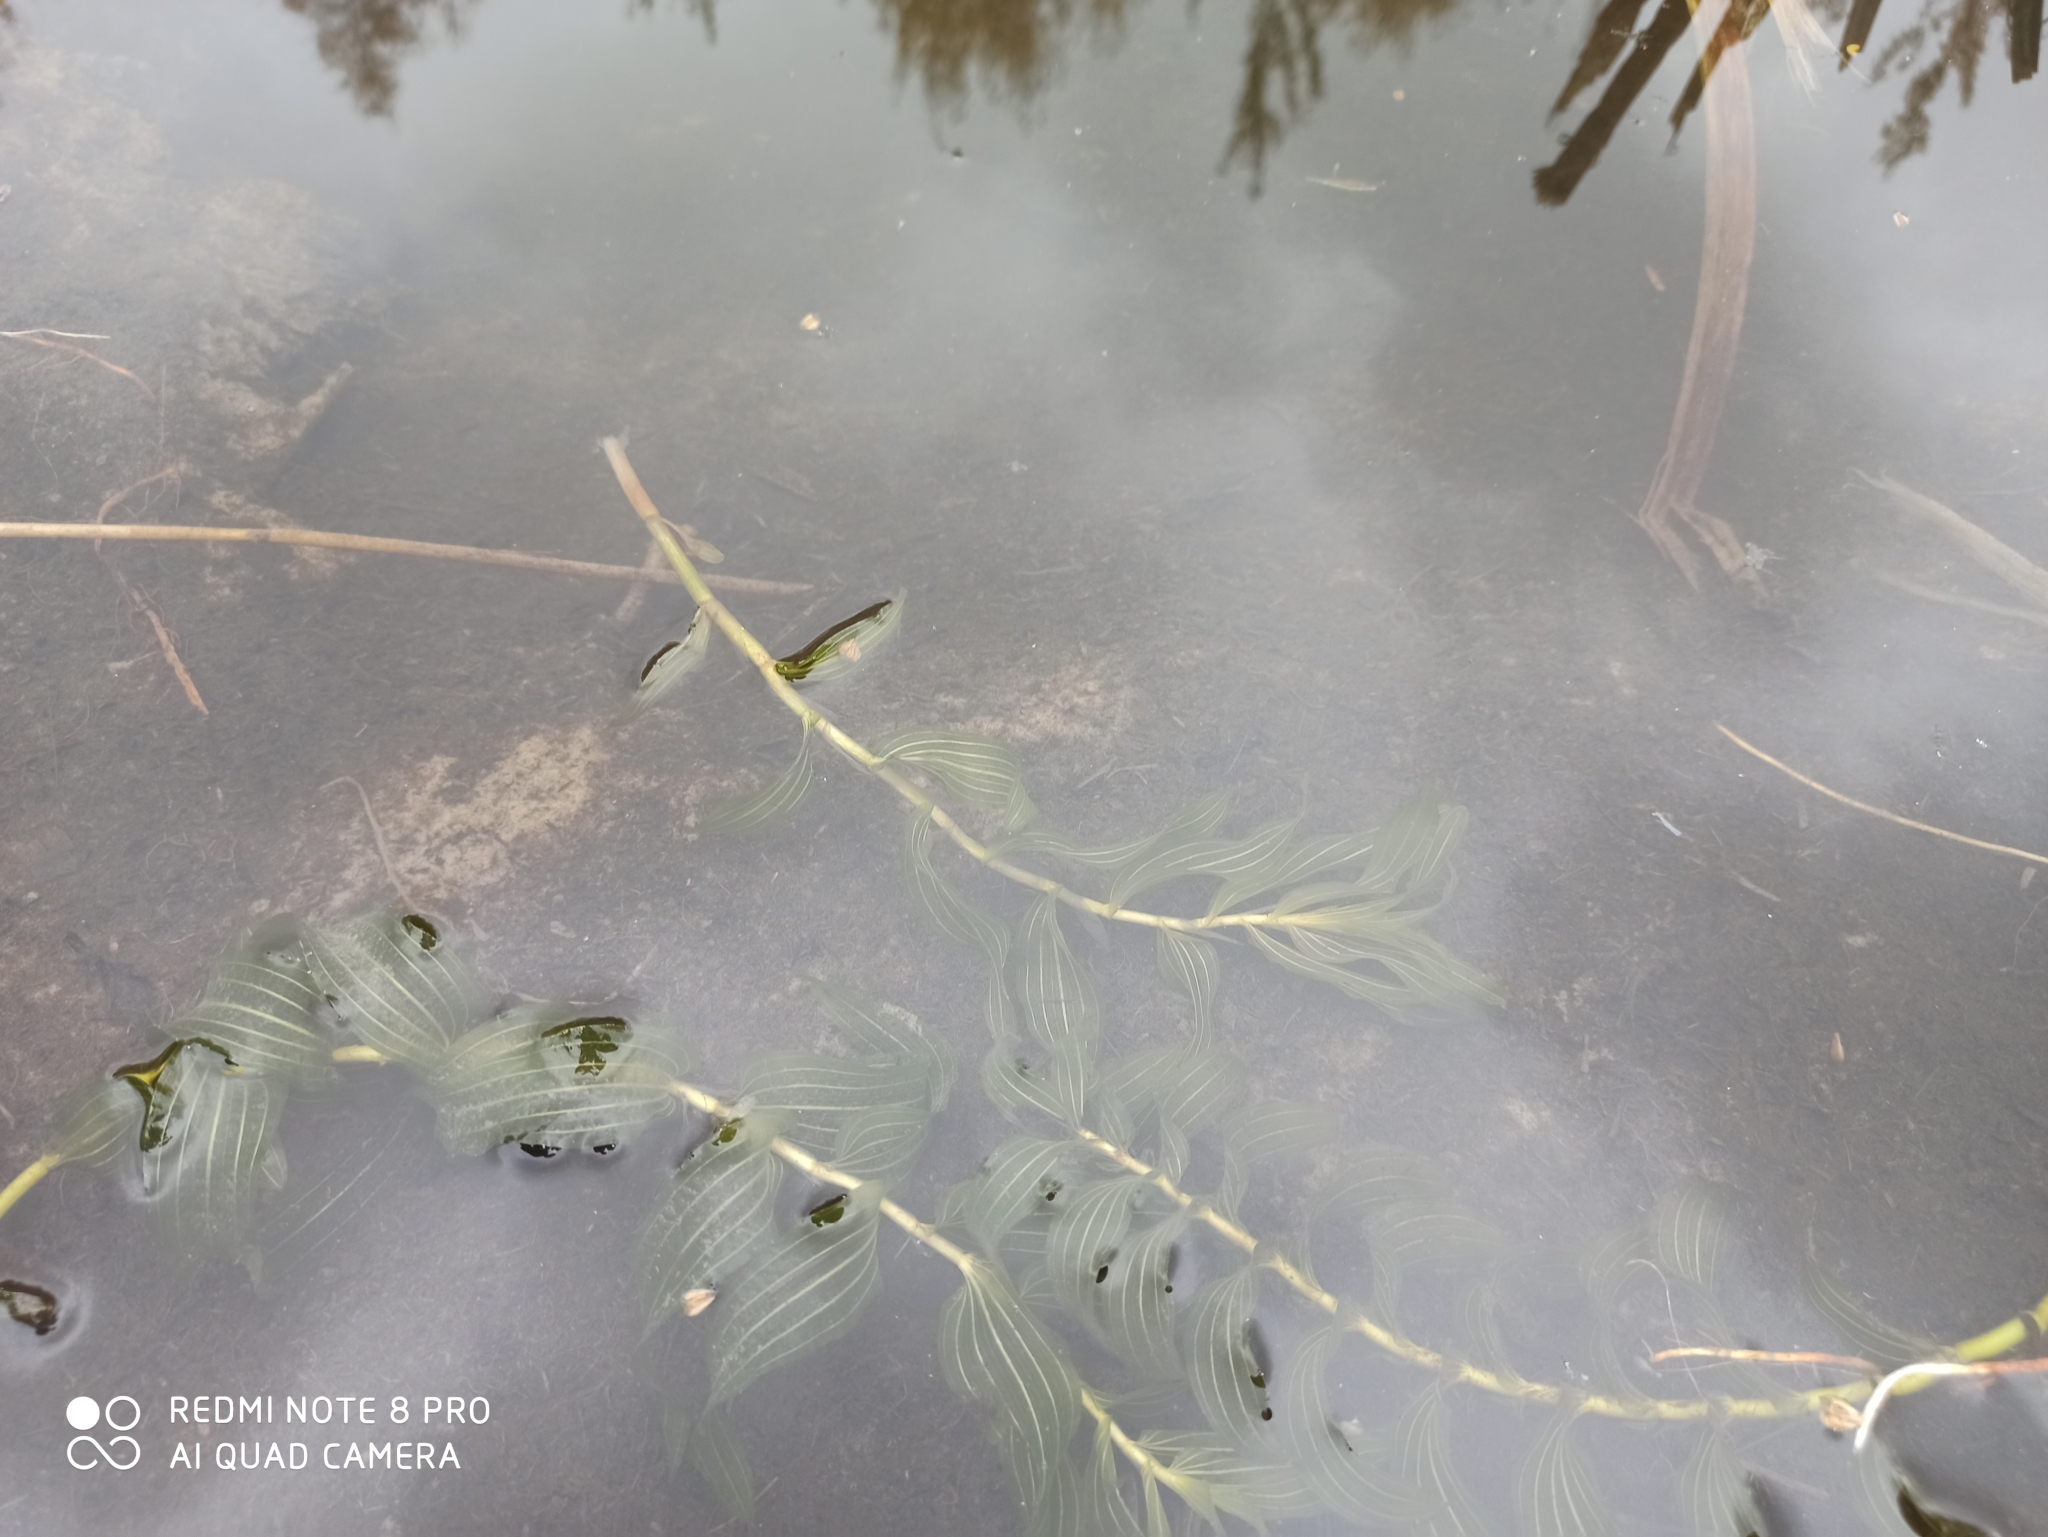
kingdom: Plantae
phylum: Tracheophyta
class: Liliopsida
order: Alismatales
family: Potamogetonaceae
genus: Potamogeton
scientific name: Potamogeton perfoliatus
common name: Perfoliate pondweed
